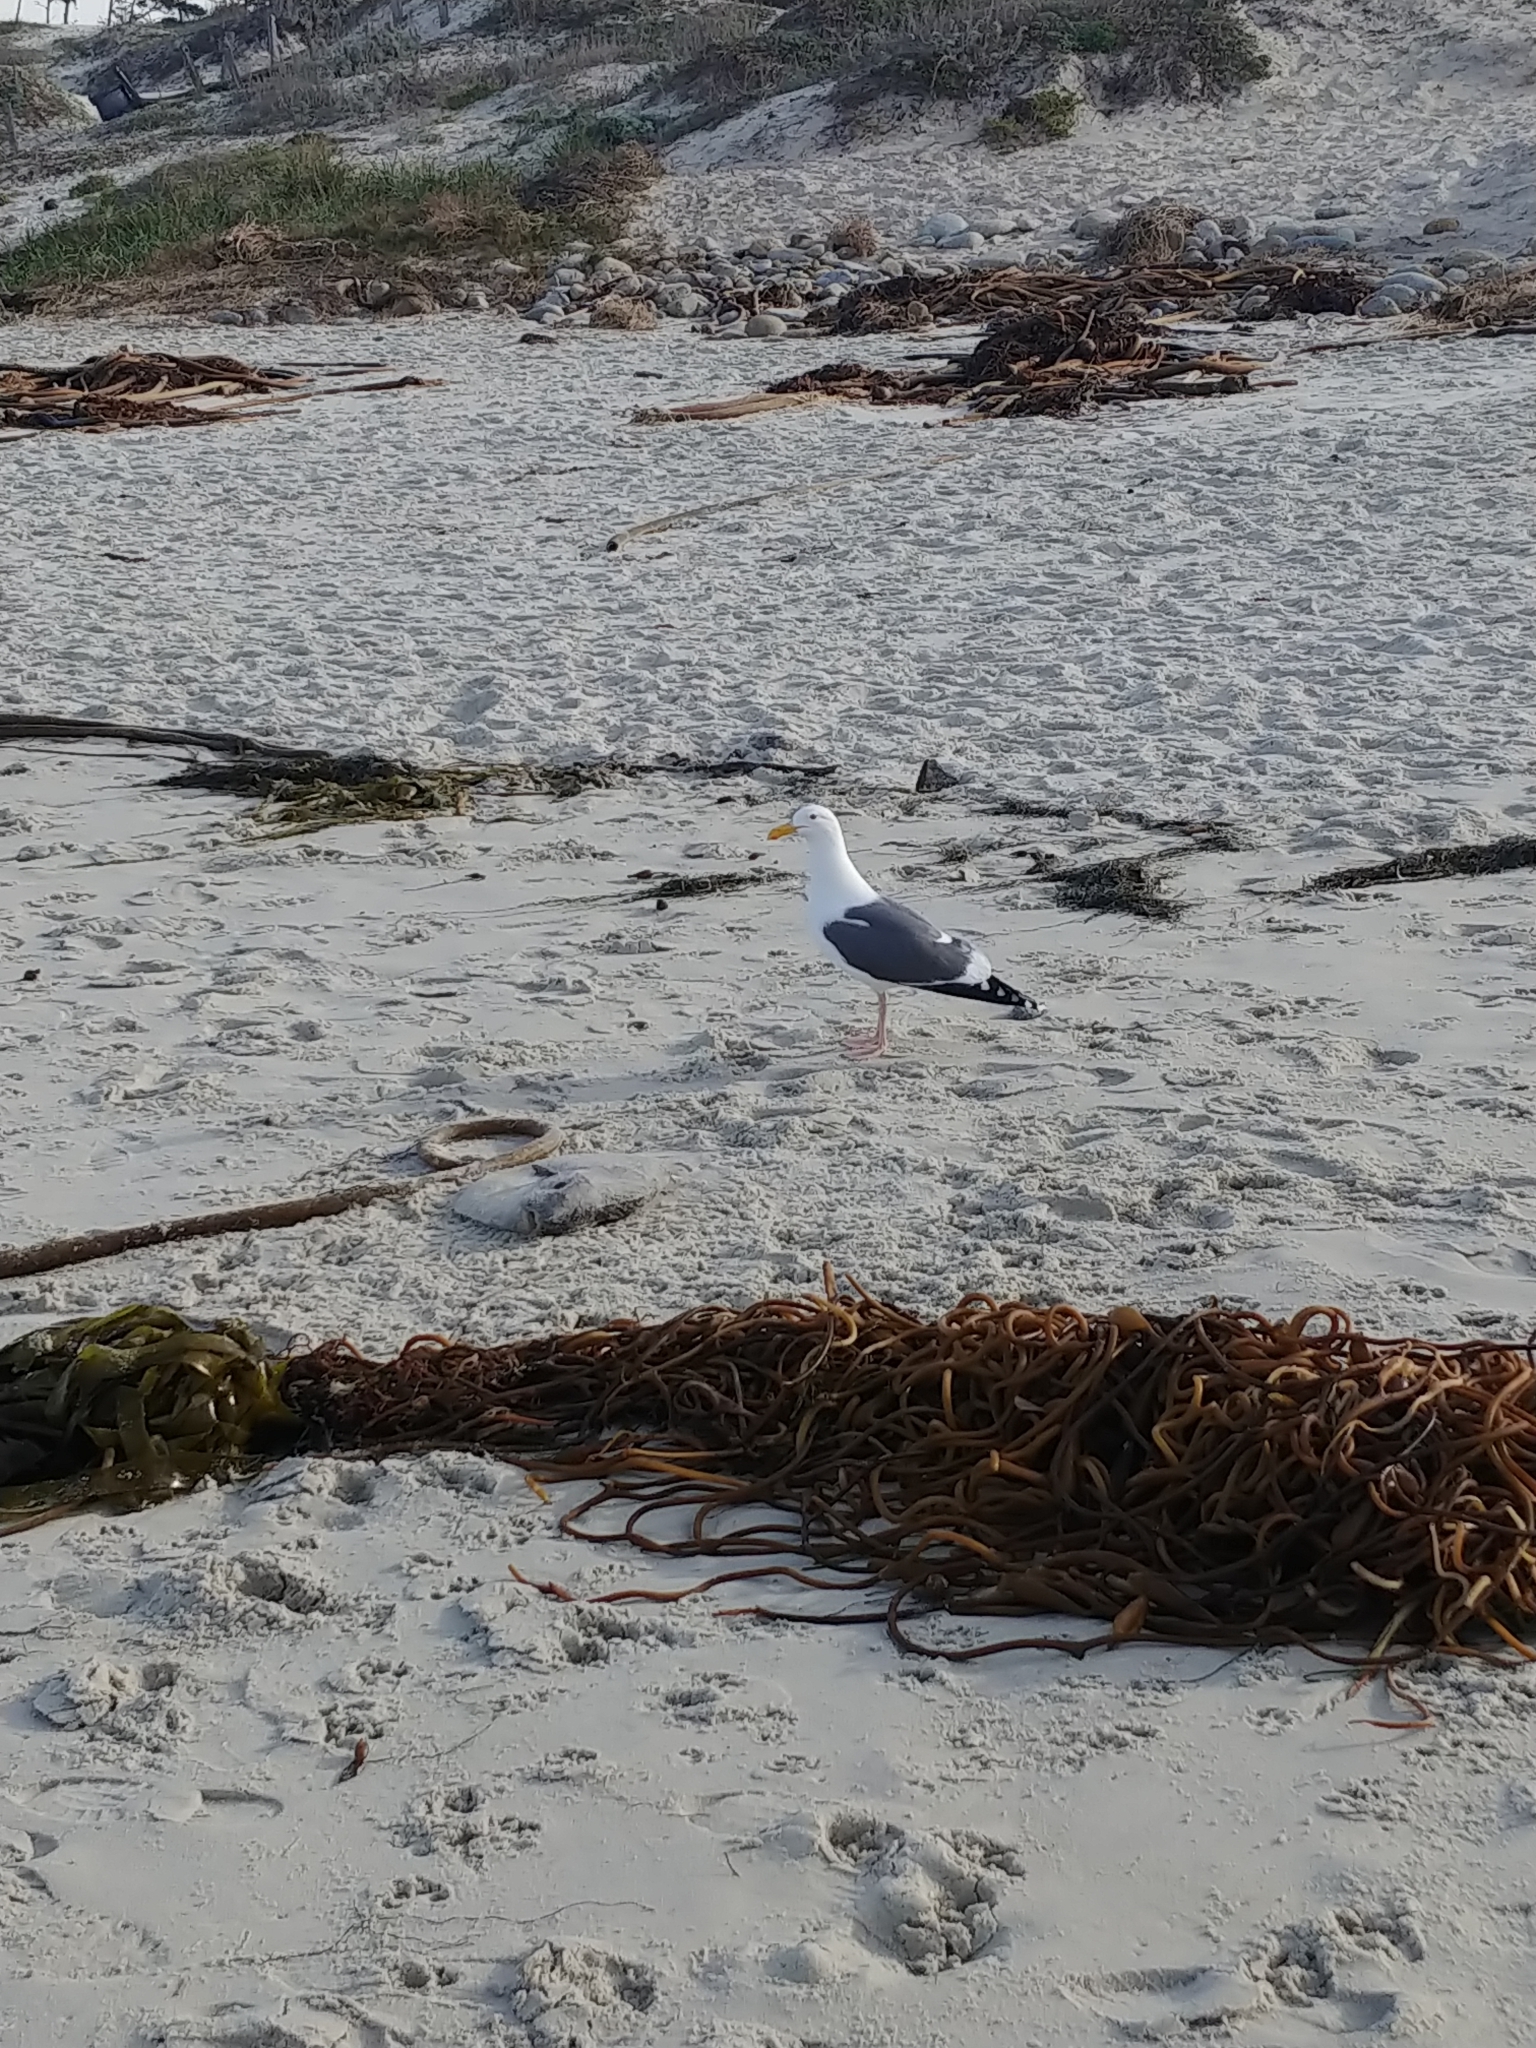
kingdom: Animalia
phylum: Chordata
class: Aves
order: Charadriiformes
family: Laridae
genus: Larus
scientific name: Larus occidentalis
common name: Western gull
